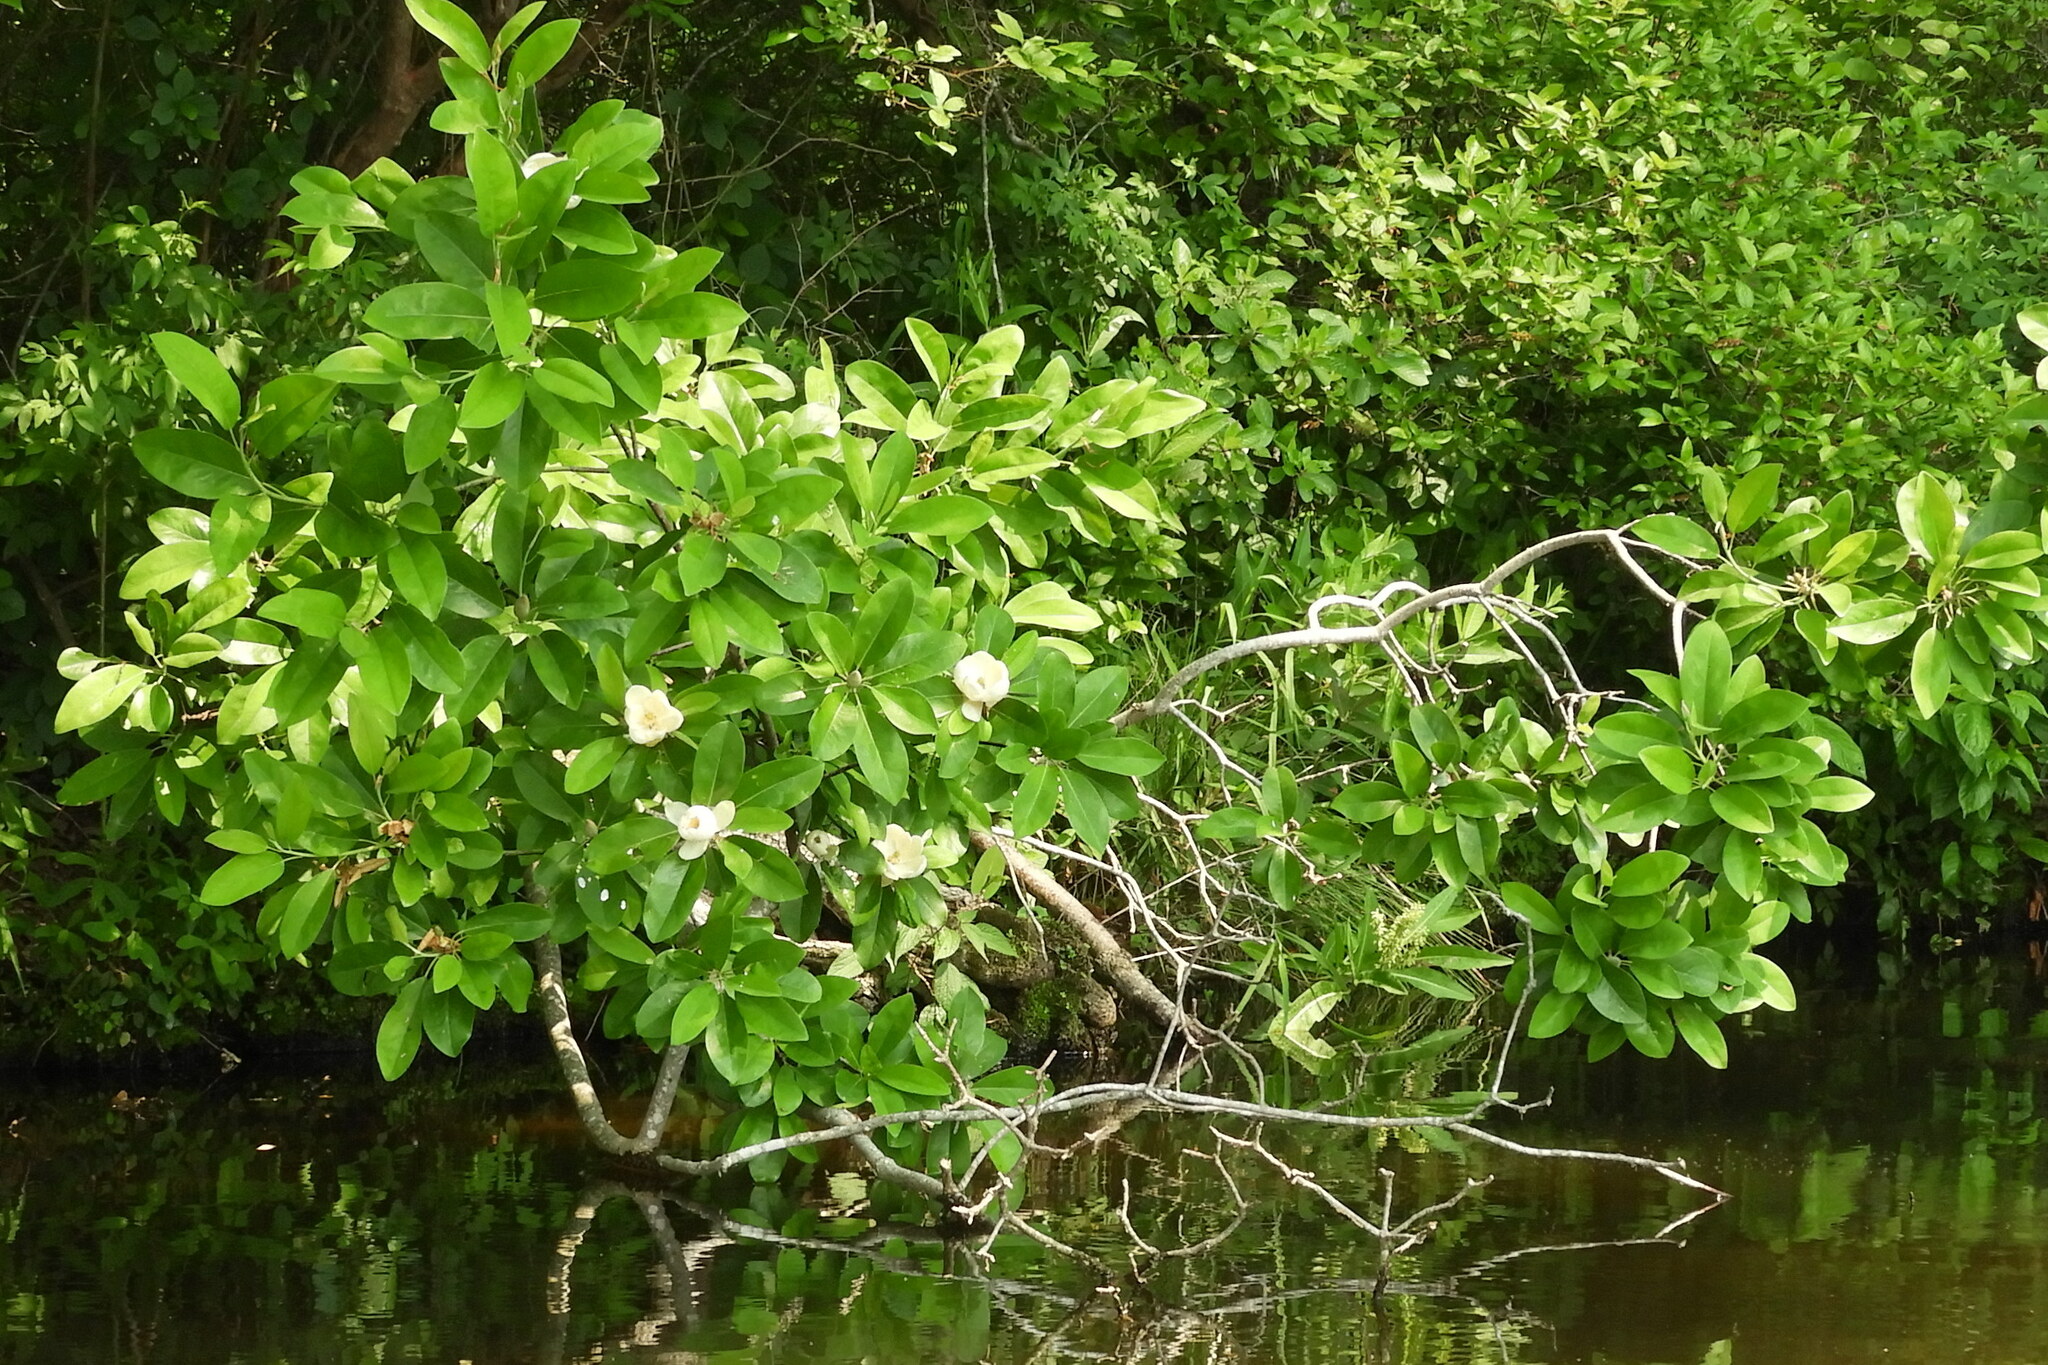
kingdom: Plantae
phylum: Tracheophyta
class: Magnoliopsida
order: Magnoliales
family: Magnoliaceae
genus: Magnolia
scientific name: Magnolia virginiana
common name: Swamp bay
